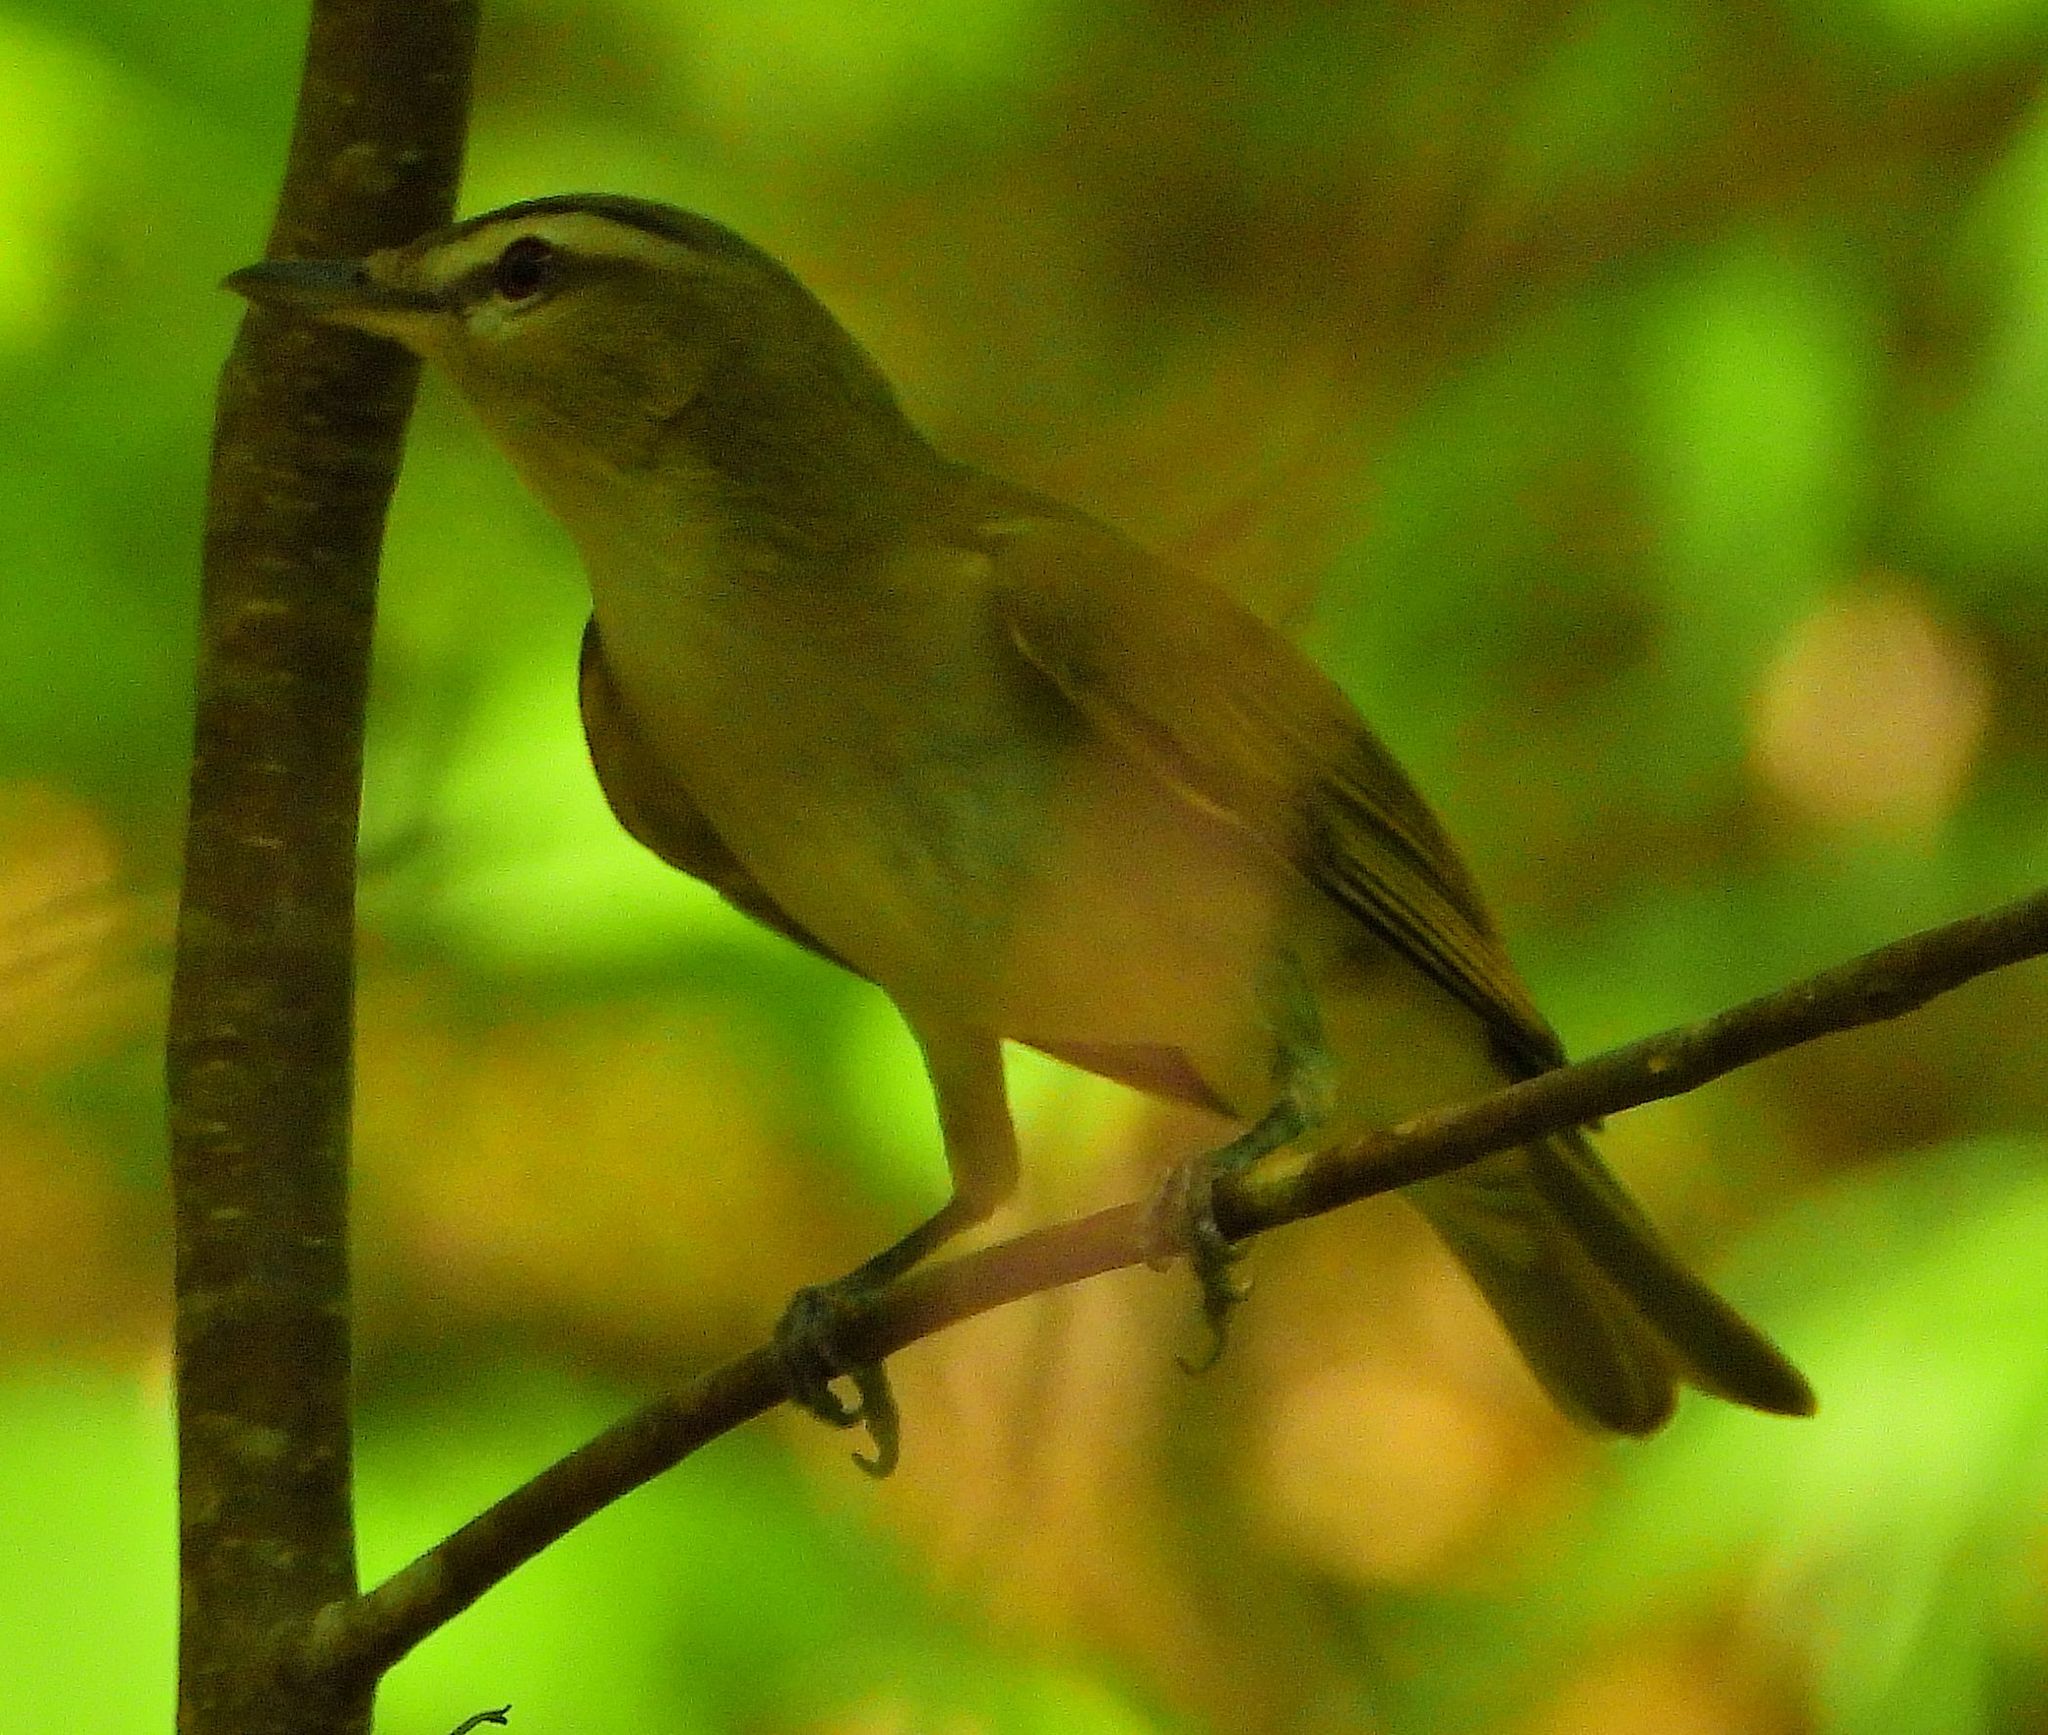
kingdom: Animalia
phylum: Chordata
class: Aves
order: Passeriformes
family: Vireonidae
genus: Vireo
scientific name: Vireo olivaceus
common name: Red-eyed vireo
